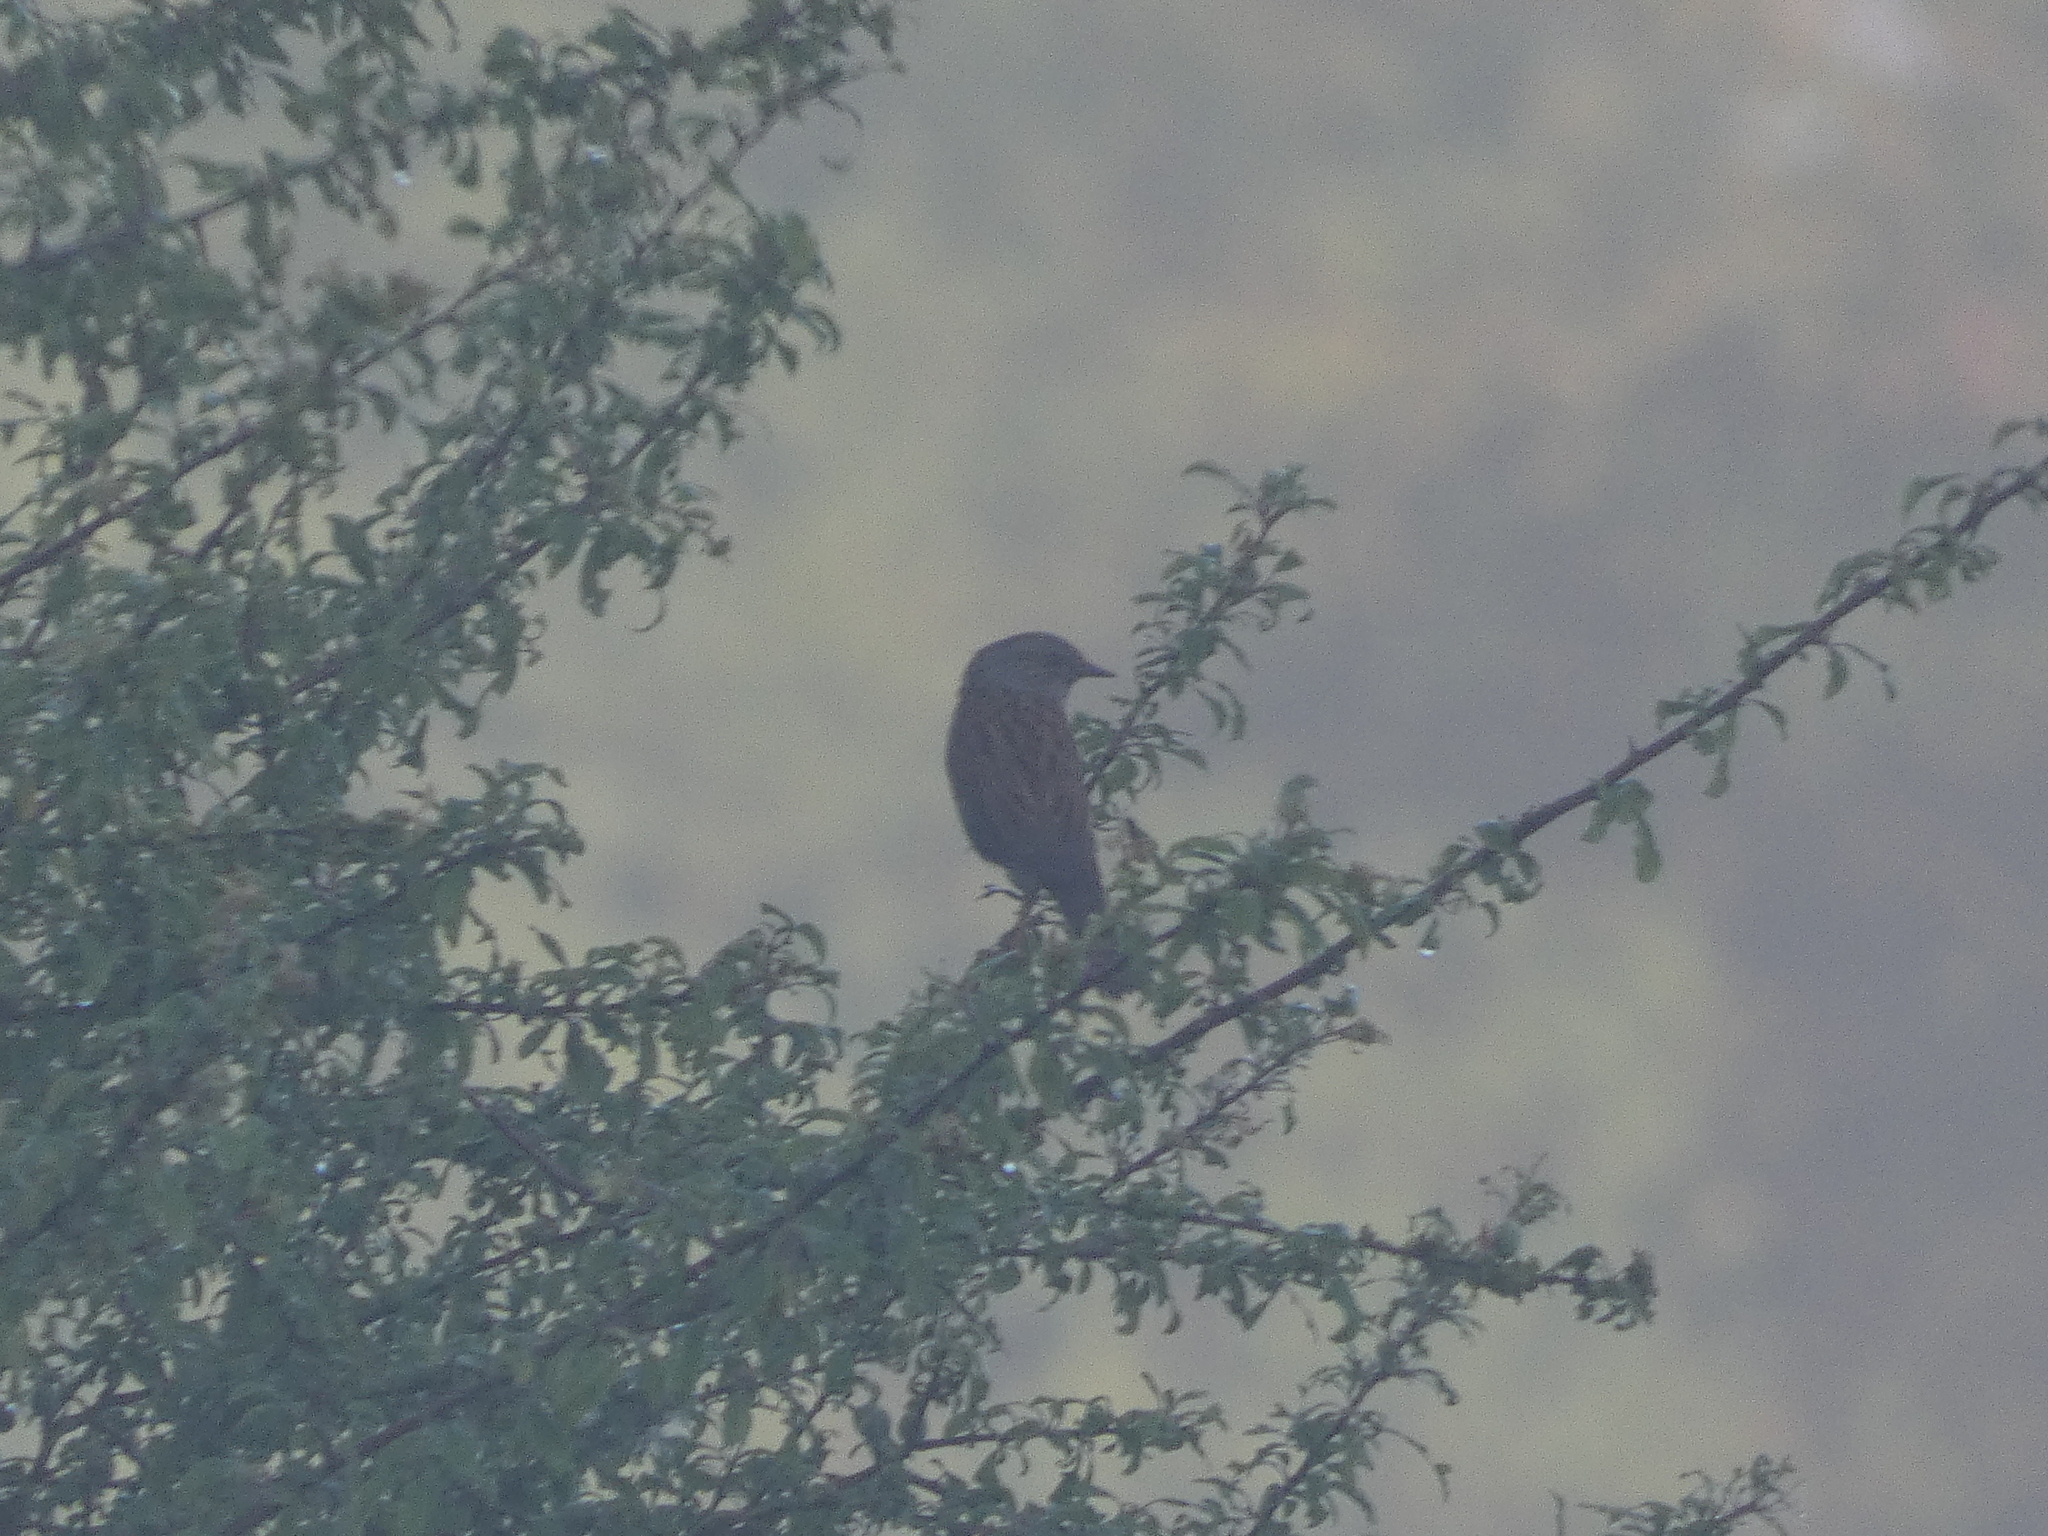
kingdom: Animalia
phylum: Chordata
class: Aves
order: Passeriformes
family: Prunellidae
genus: Prunella
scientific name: Prunella modularis
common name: Dunnock
